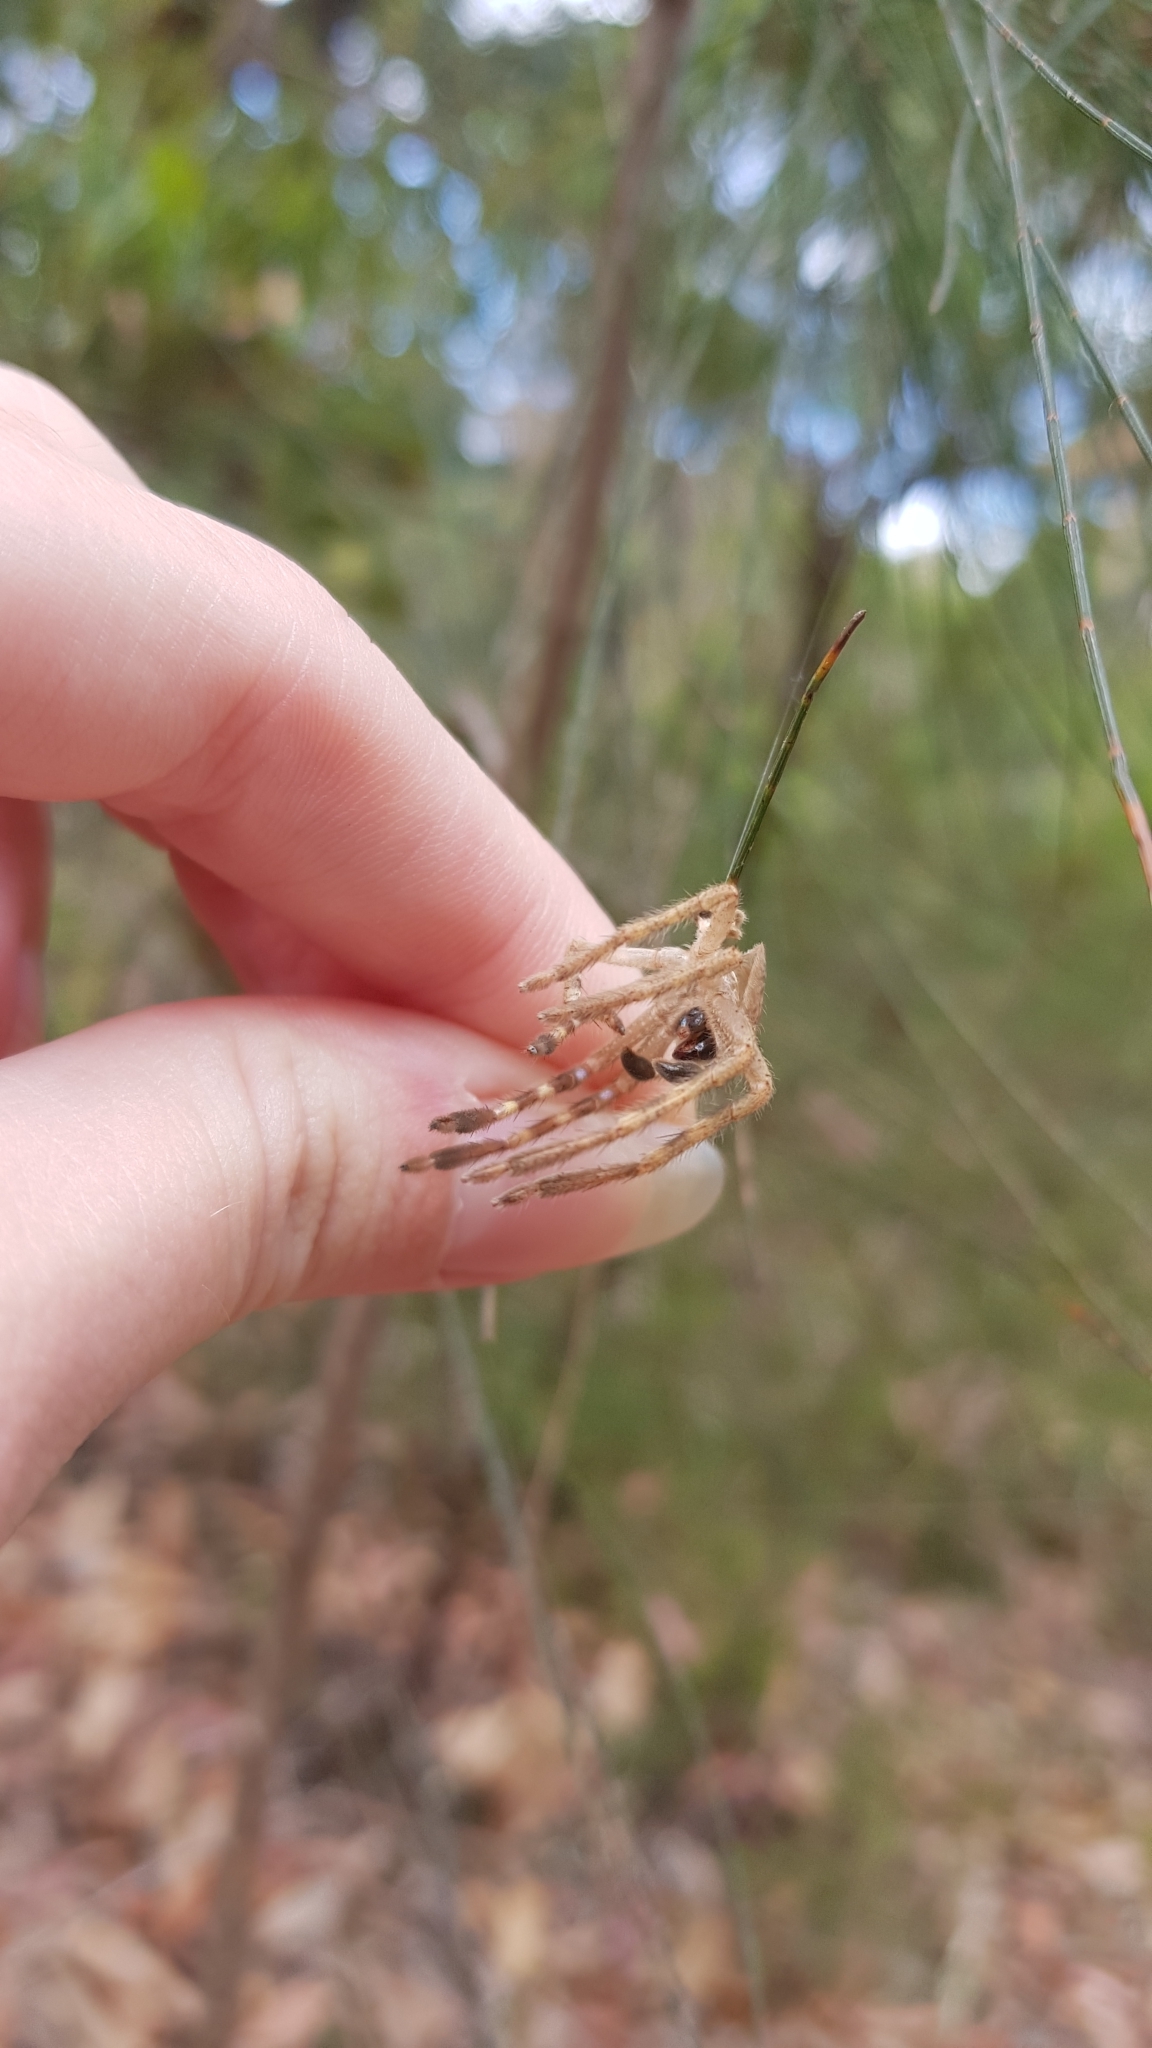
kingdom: Animalia
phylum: Arthropoda
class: Arachnida
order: Araneae
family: Sparassidae
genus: Neosparassus
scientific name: Neosparassus calligaster
